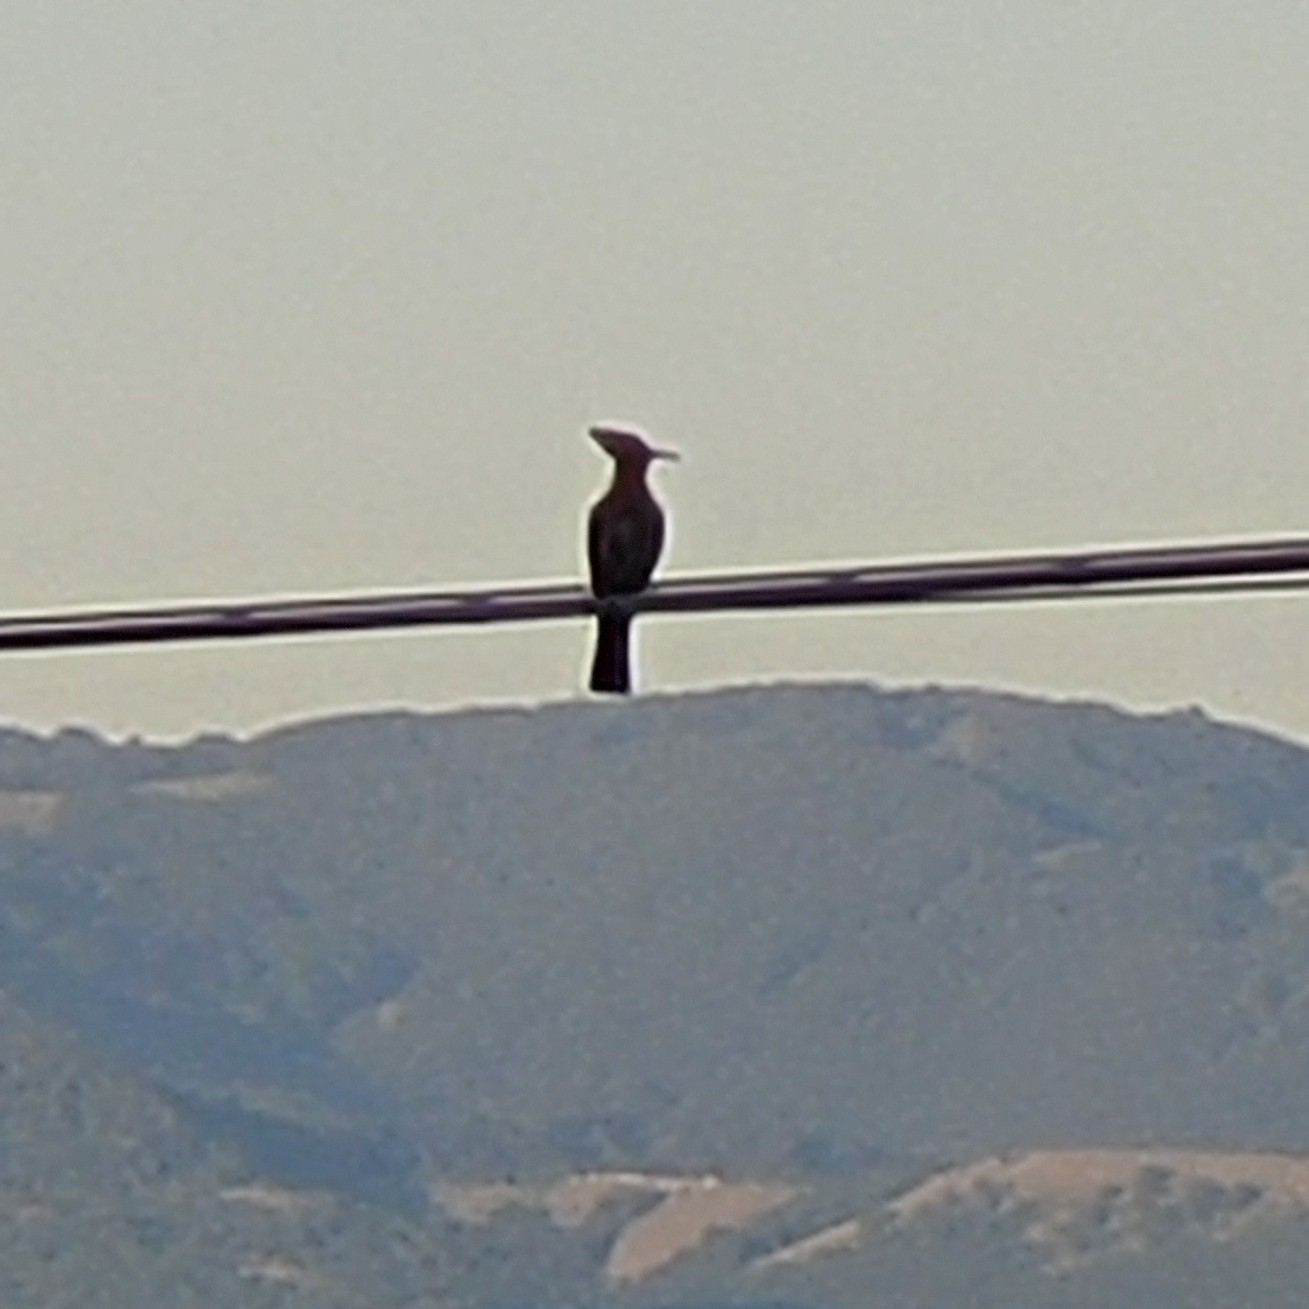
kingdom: Animalia
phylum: Chordata
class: Aves
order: Bucerotiformes
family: Upupidae
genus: Upupa
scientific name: Upupa epops
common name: Eurasian hoopoe
